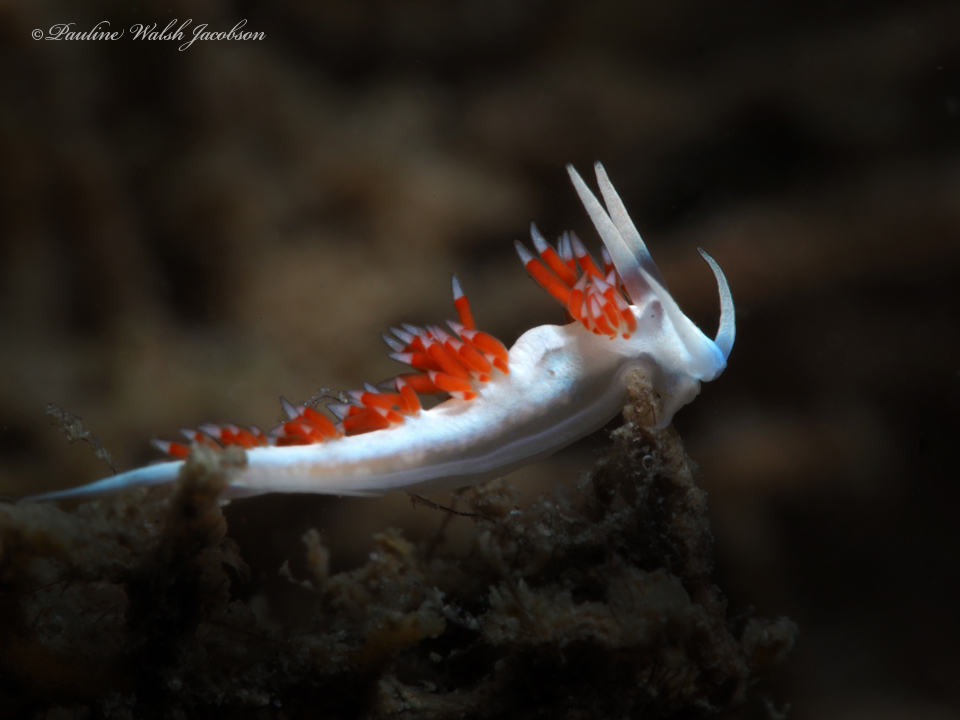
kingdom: Animalia
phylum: Mollusca
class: Gastropoda
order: Nudibranchia
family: Flabellinidae
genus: Flabellina
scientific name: Flabellina dushia
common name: Dushia flabellina
